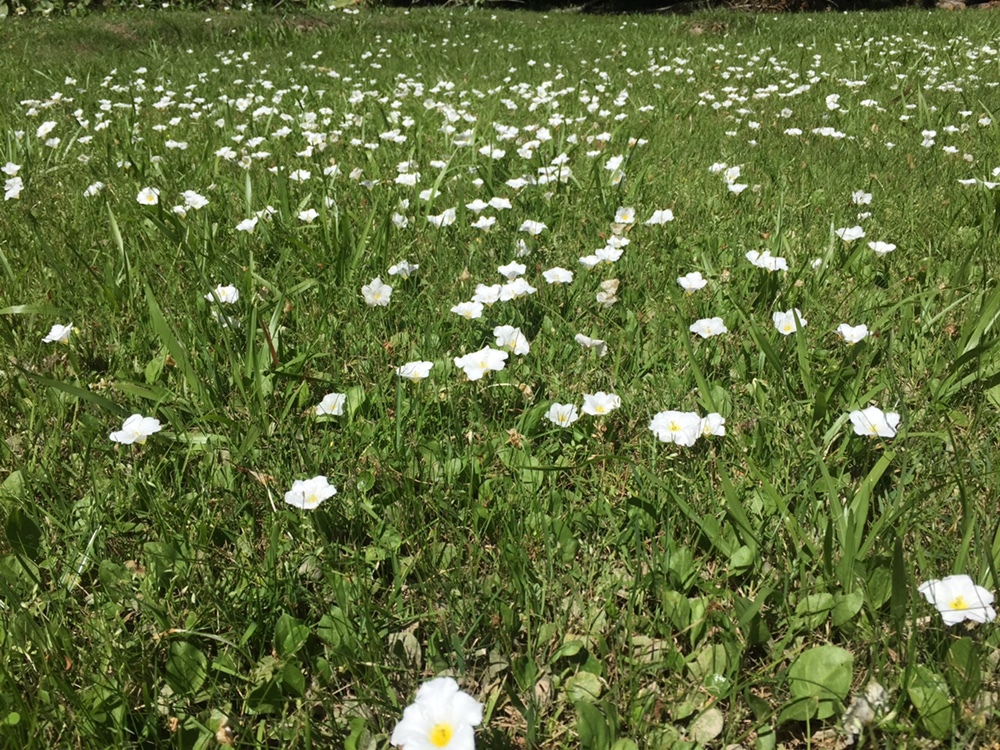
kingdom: Plantae
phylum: Tracheophyta
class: Magnoliopsida
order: Solanales
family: Solanaceae
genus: Nierembergia
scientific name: Nierembergia rivularis
